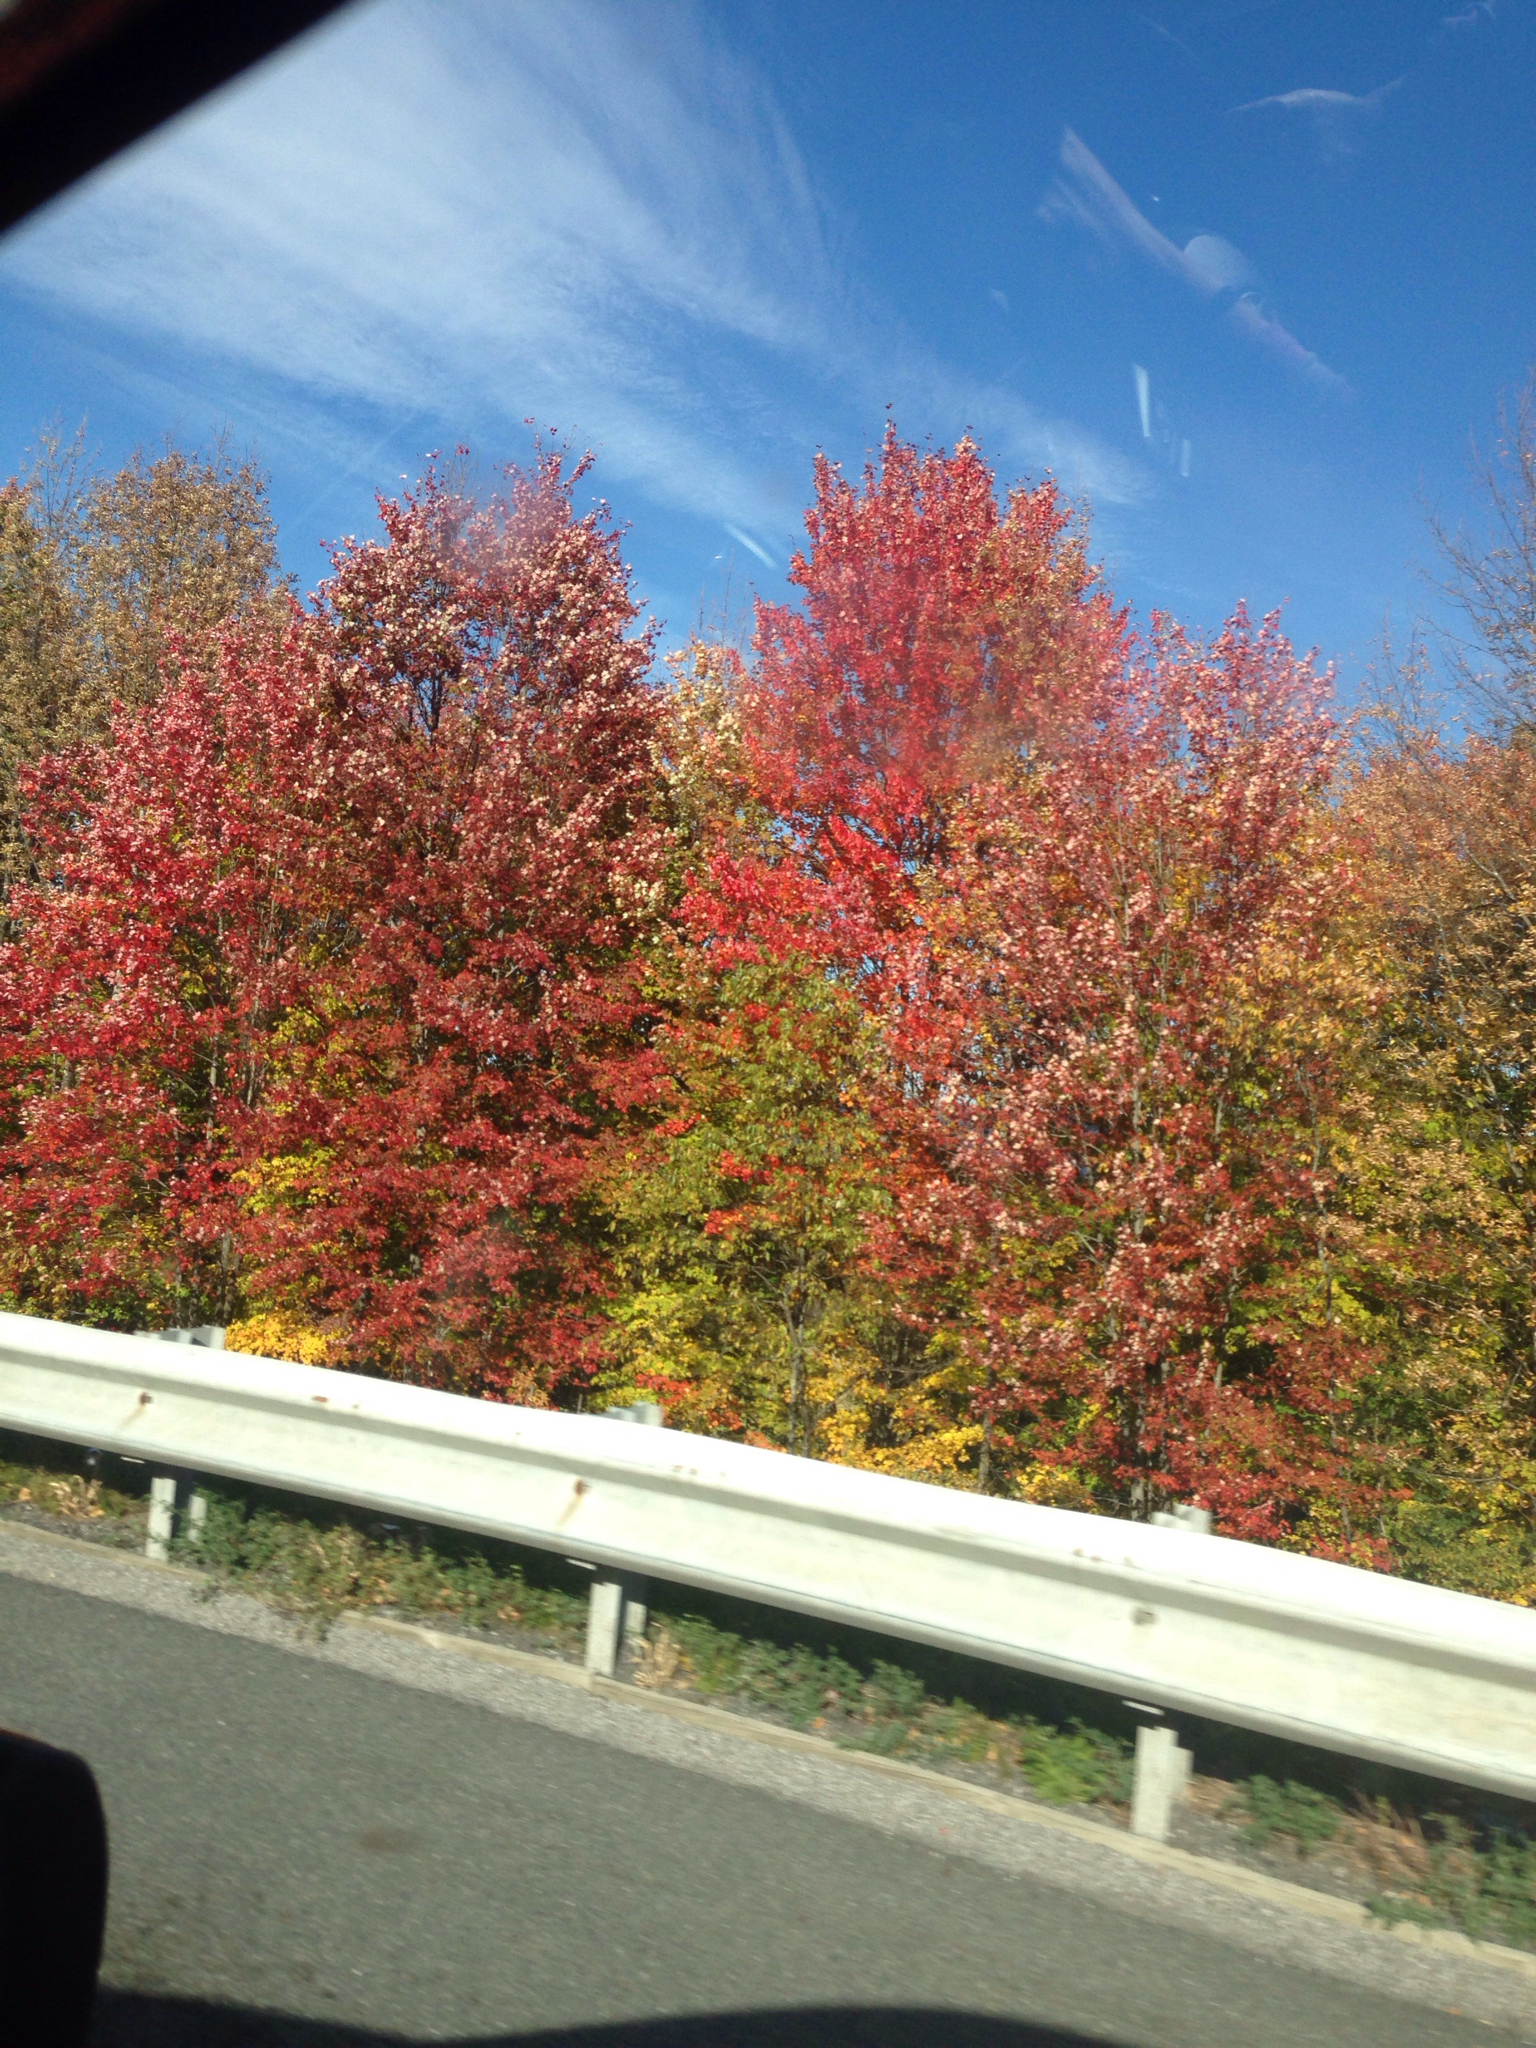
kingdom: Plantae
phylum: Tracheophyta
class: Magnoliopsida
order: Sapindales
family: Sapindaceae
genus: Acer
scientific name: Acer rubrum
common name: Red maple
